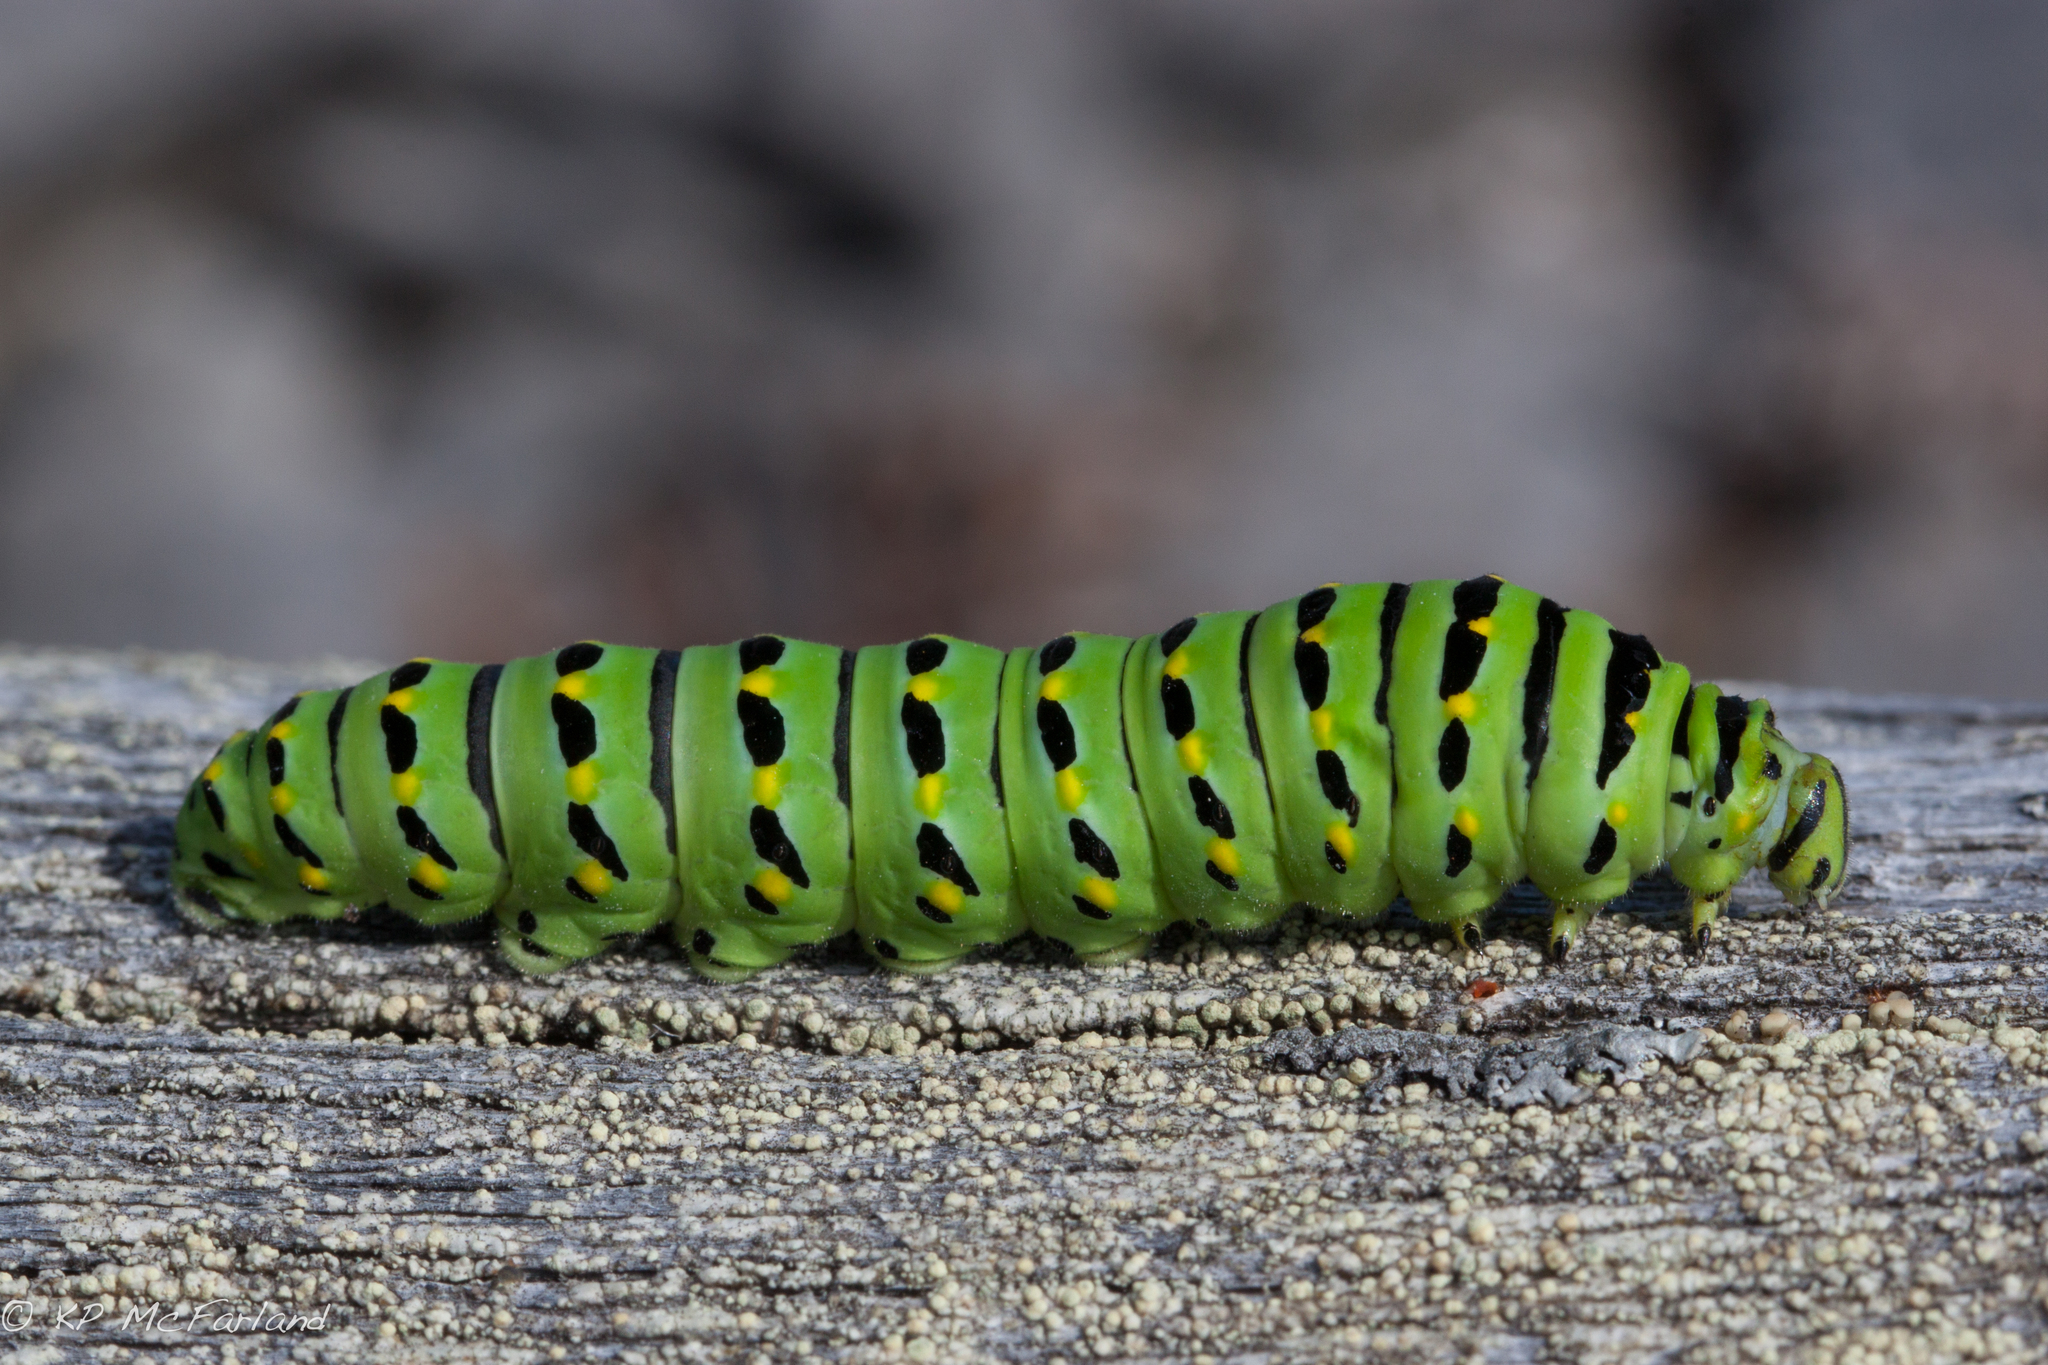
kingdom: Animalia
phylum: Arthropoda
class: Insecta
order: Lepidoptera
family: Papilionidae
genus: Papilio
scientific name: Papilio brevicauda
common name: Short tailed swallowtail
